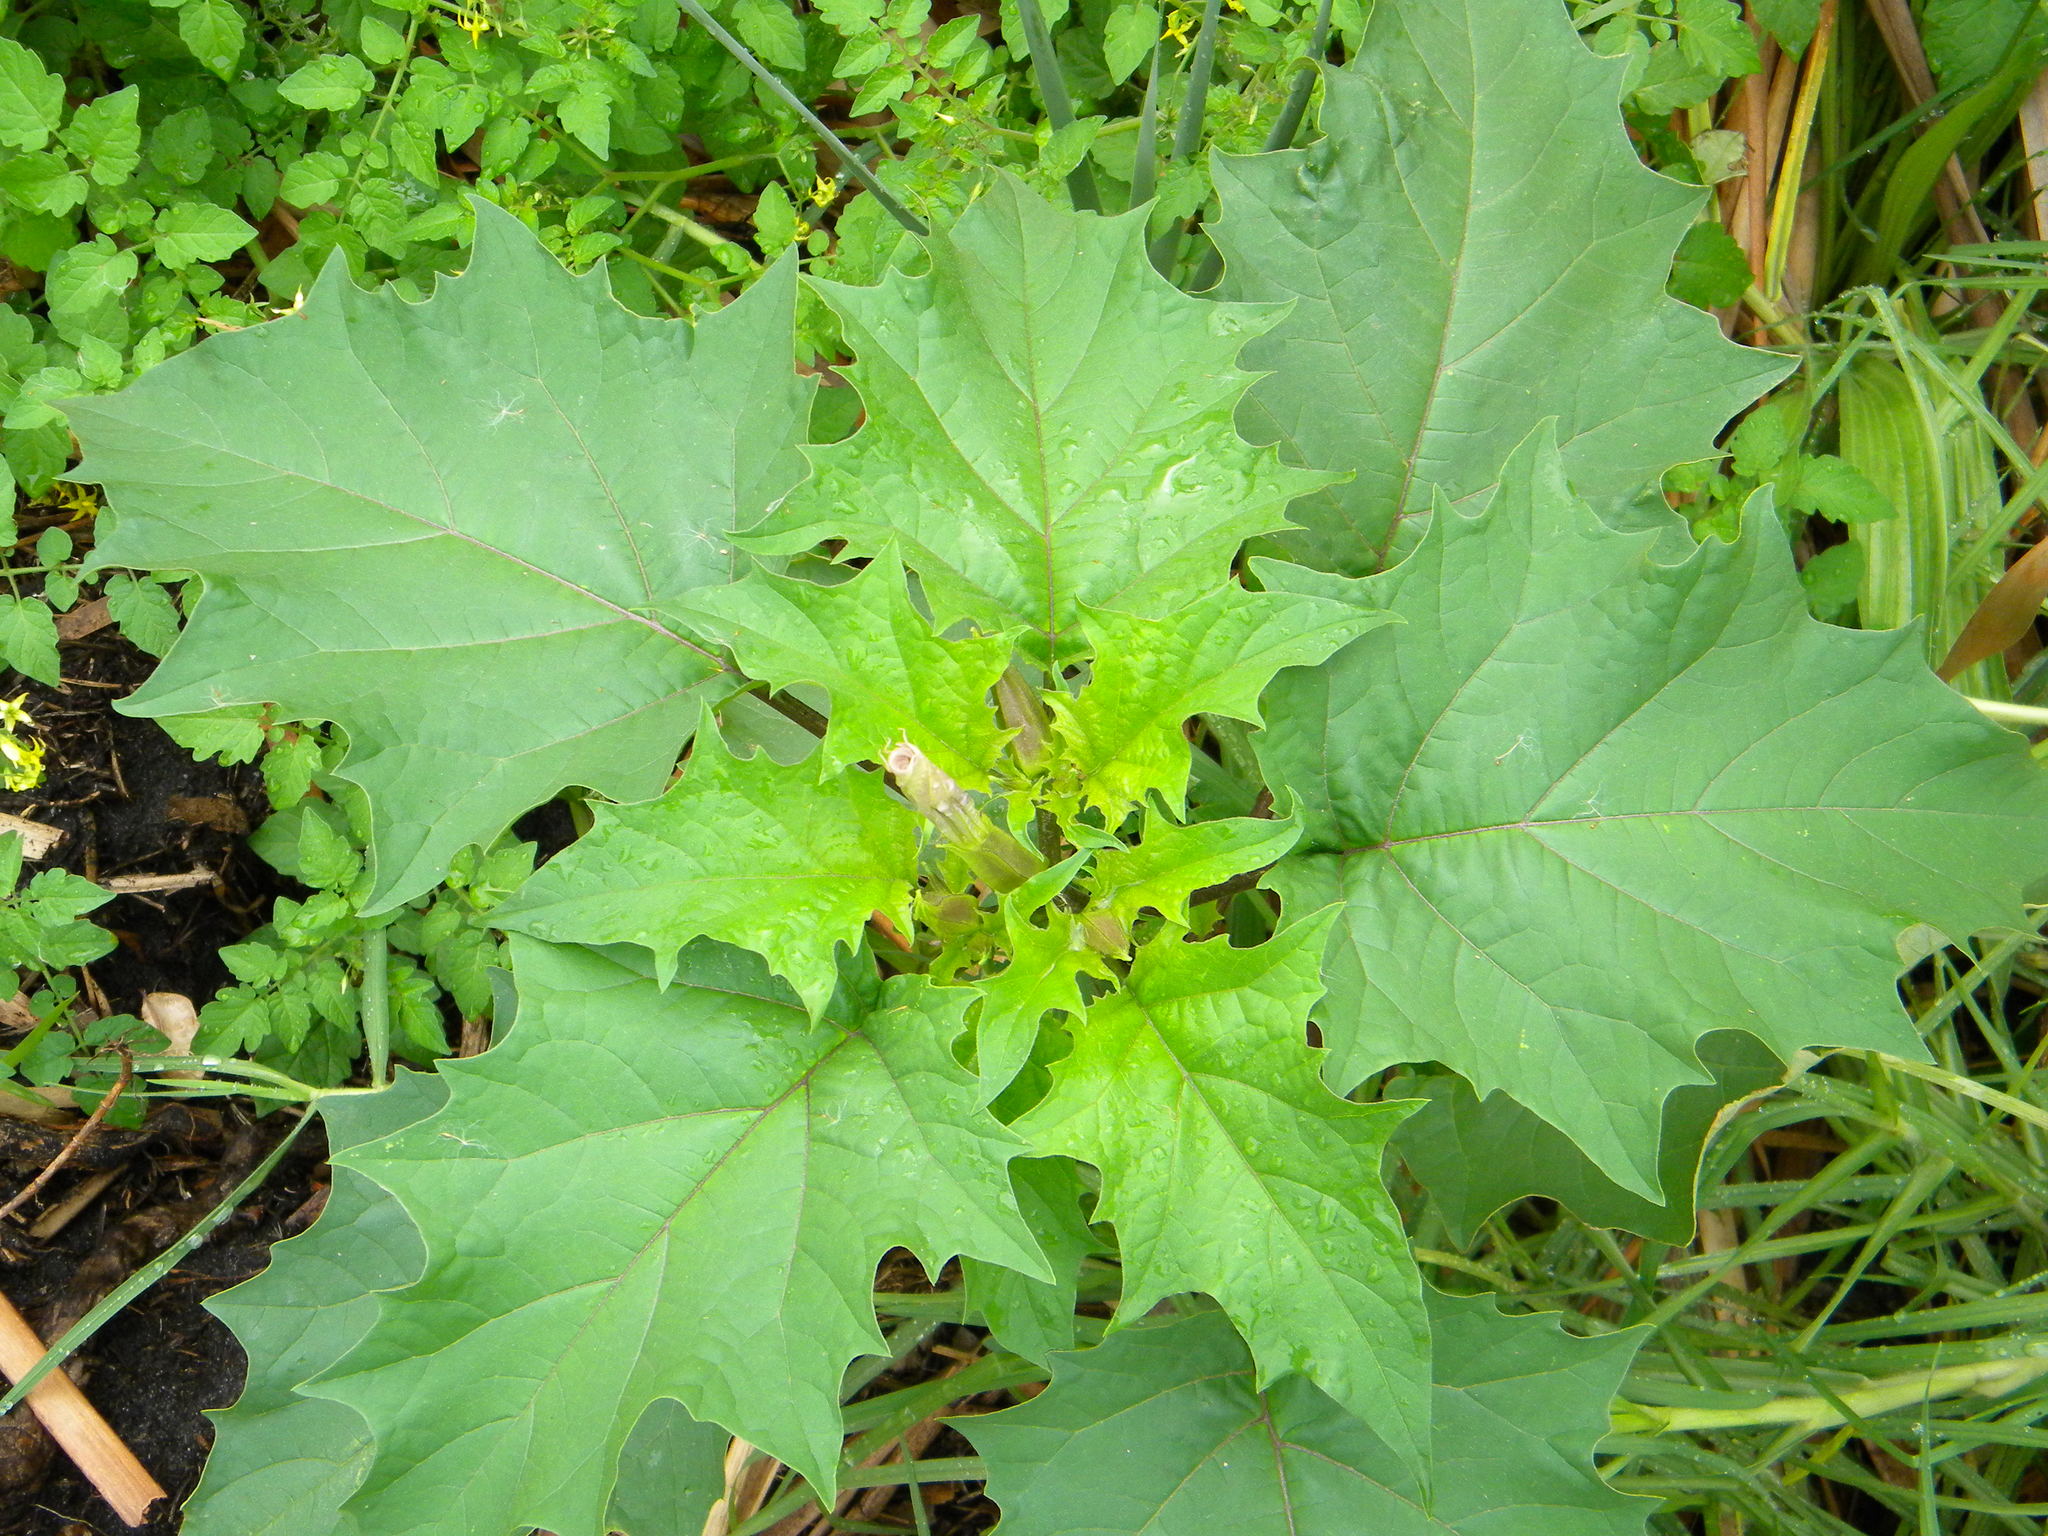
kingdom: Plantae
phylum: Tracheophyta
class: Magnoliopsida
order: Solanales
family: Solanaceae
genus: Datura
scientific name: Datura stramonium
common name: Thorn-apple
